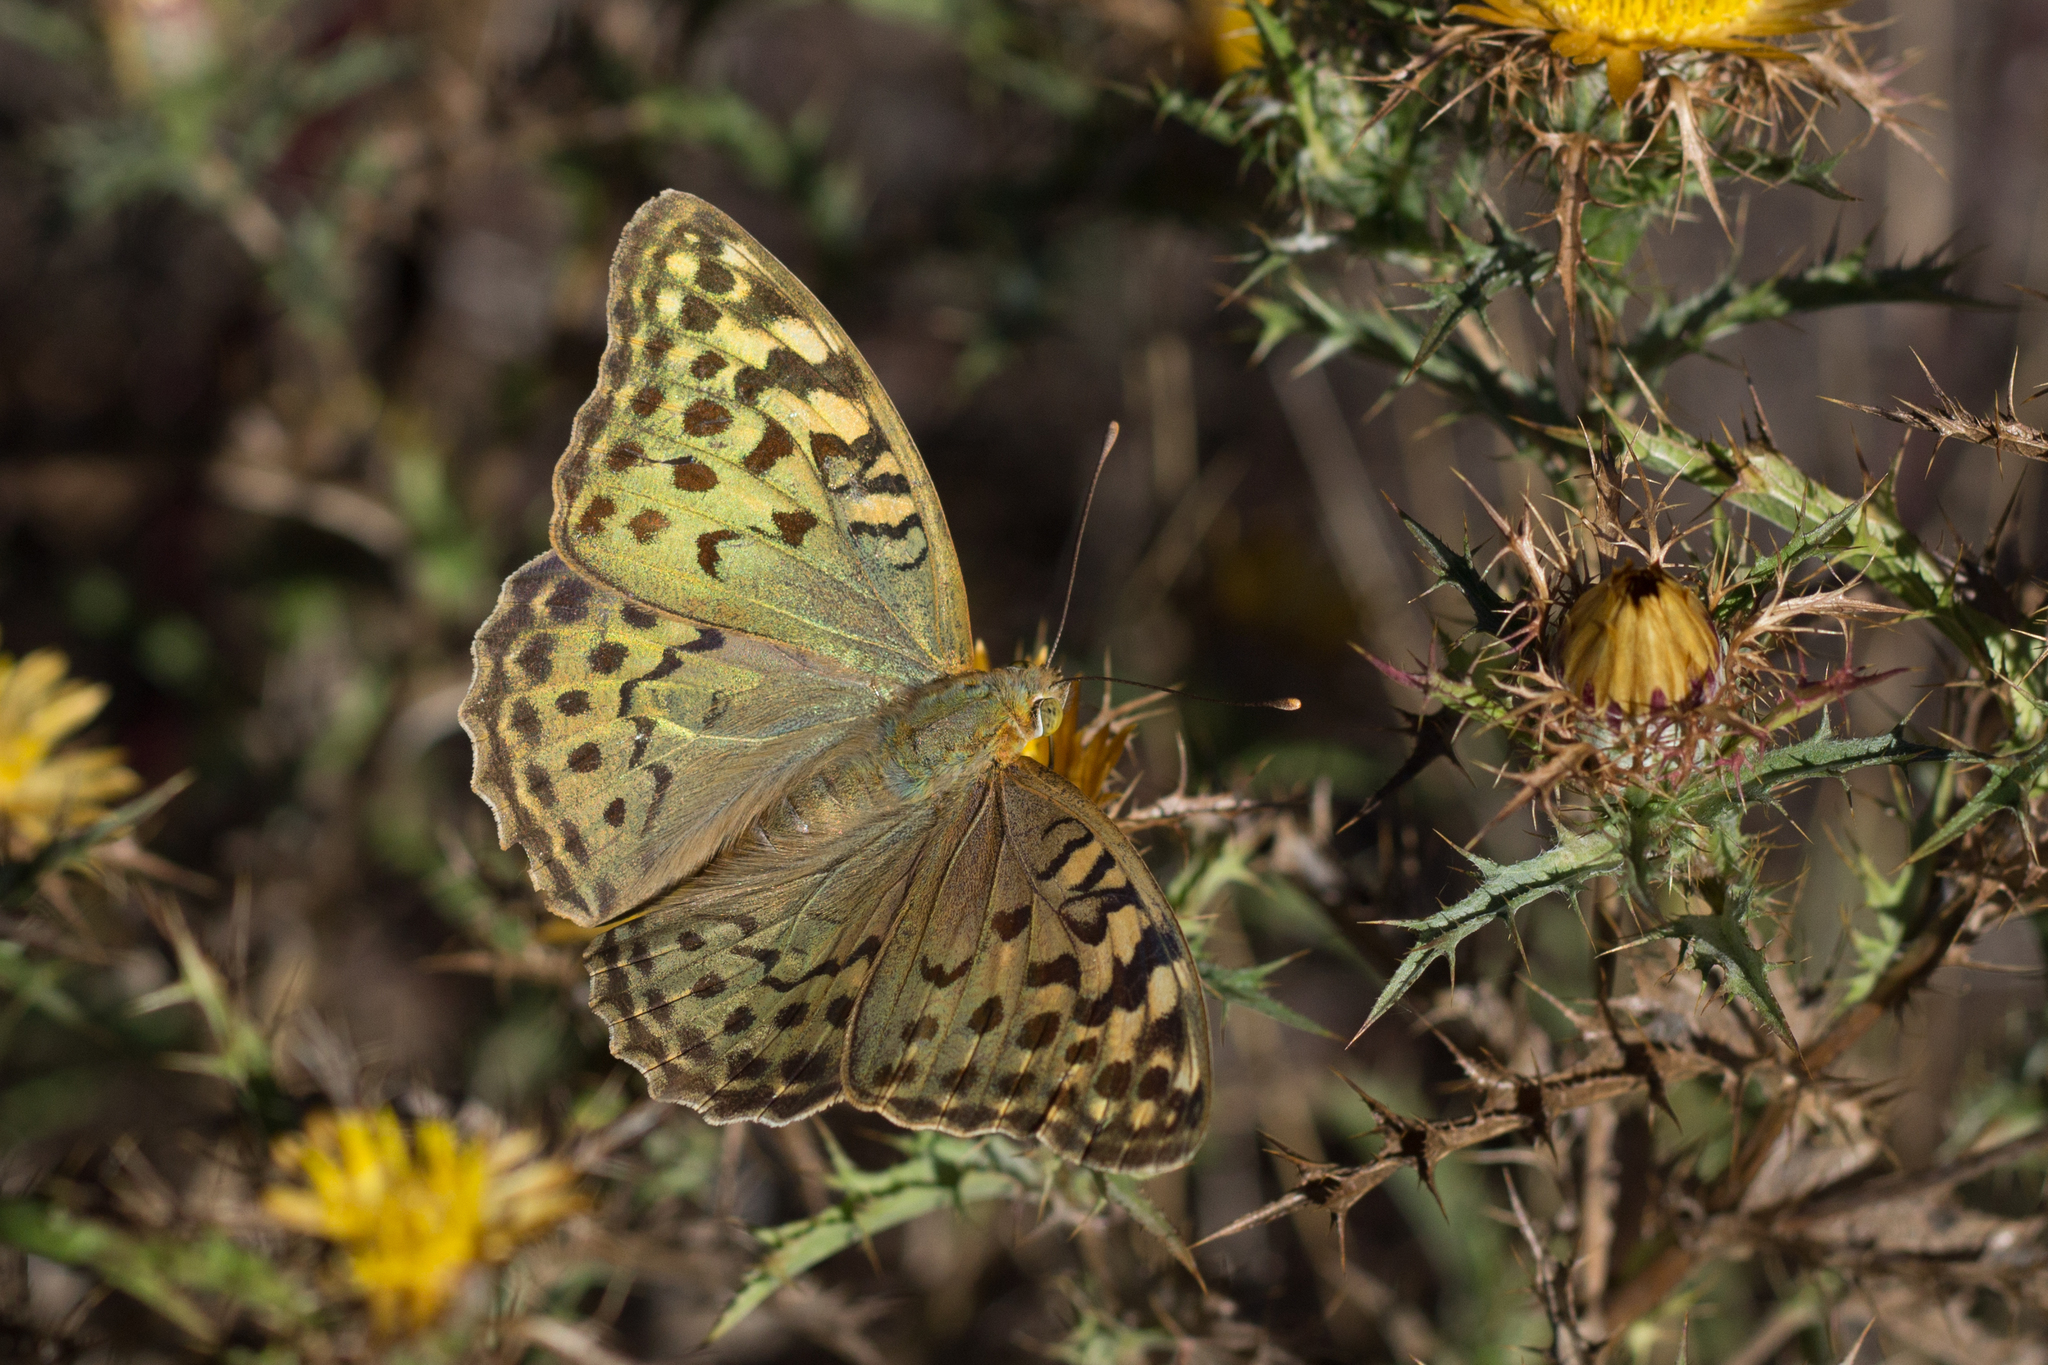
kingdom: Animalia
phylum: Arthropoda
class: Insecta
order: Lepidoptera
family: Nymphalidae
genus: Damora
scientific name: Damora pandora
